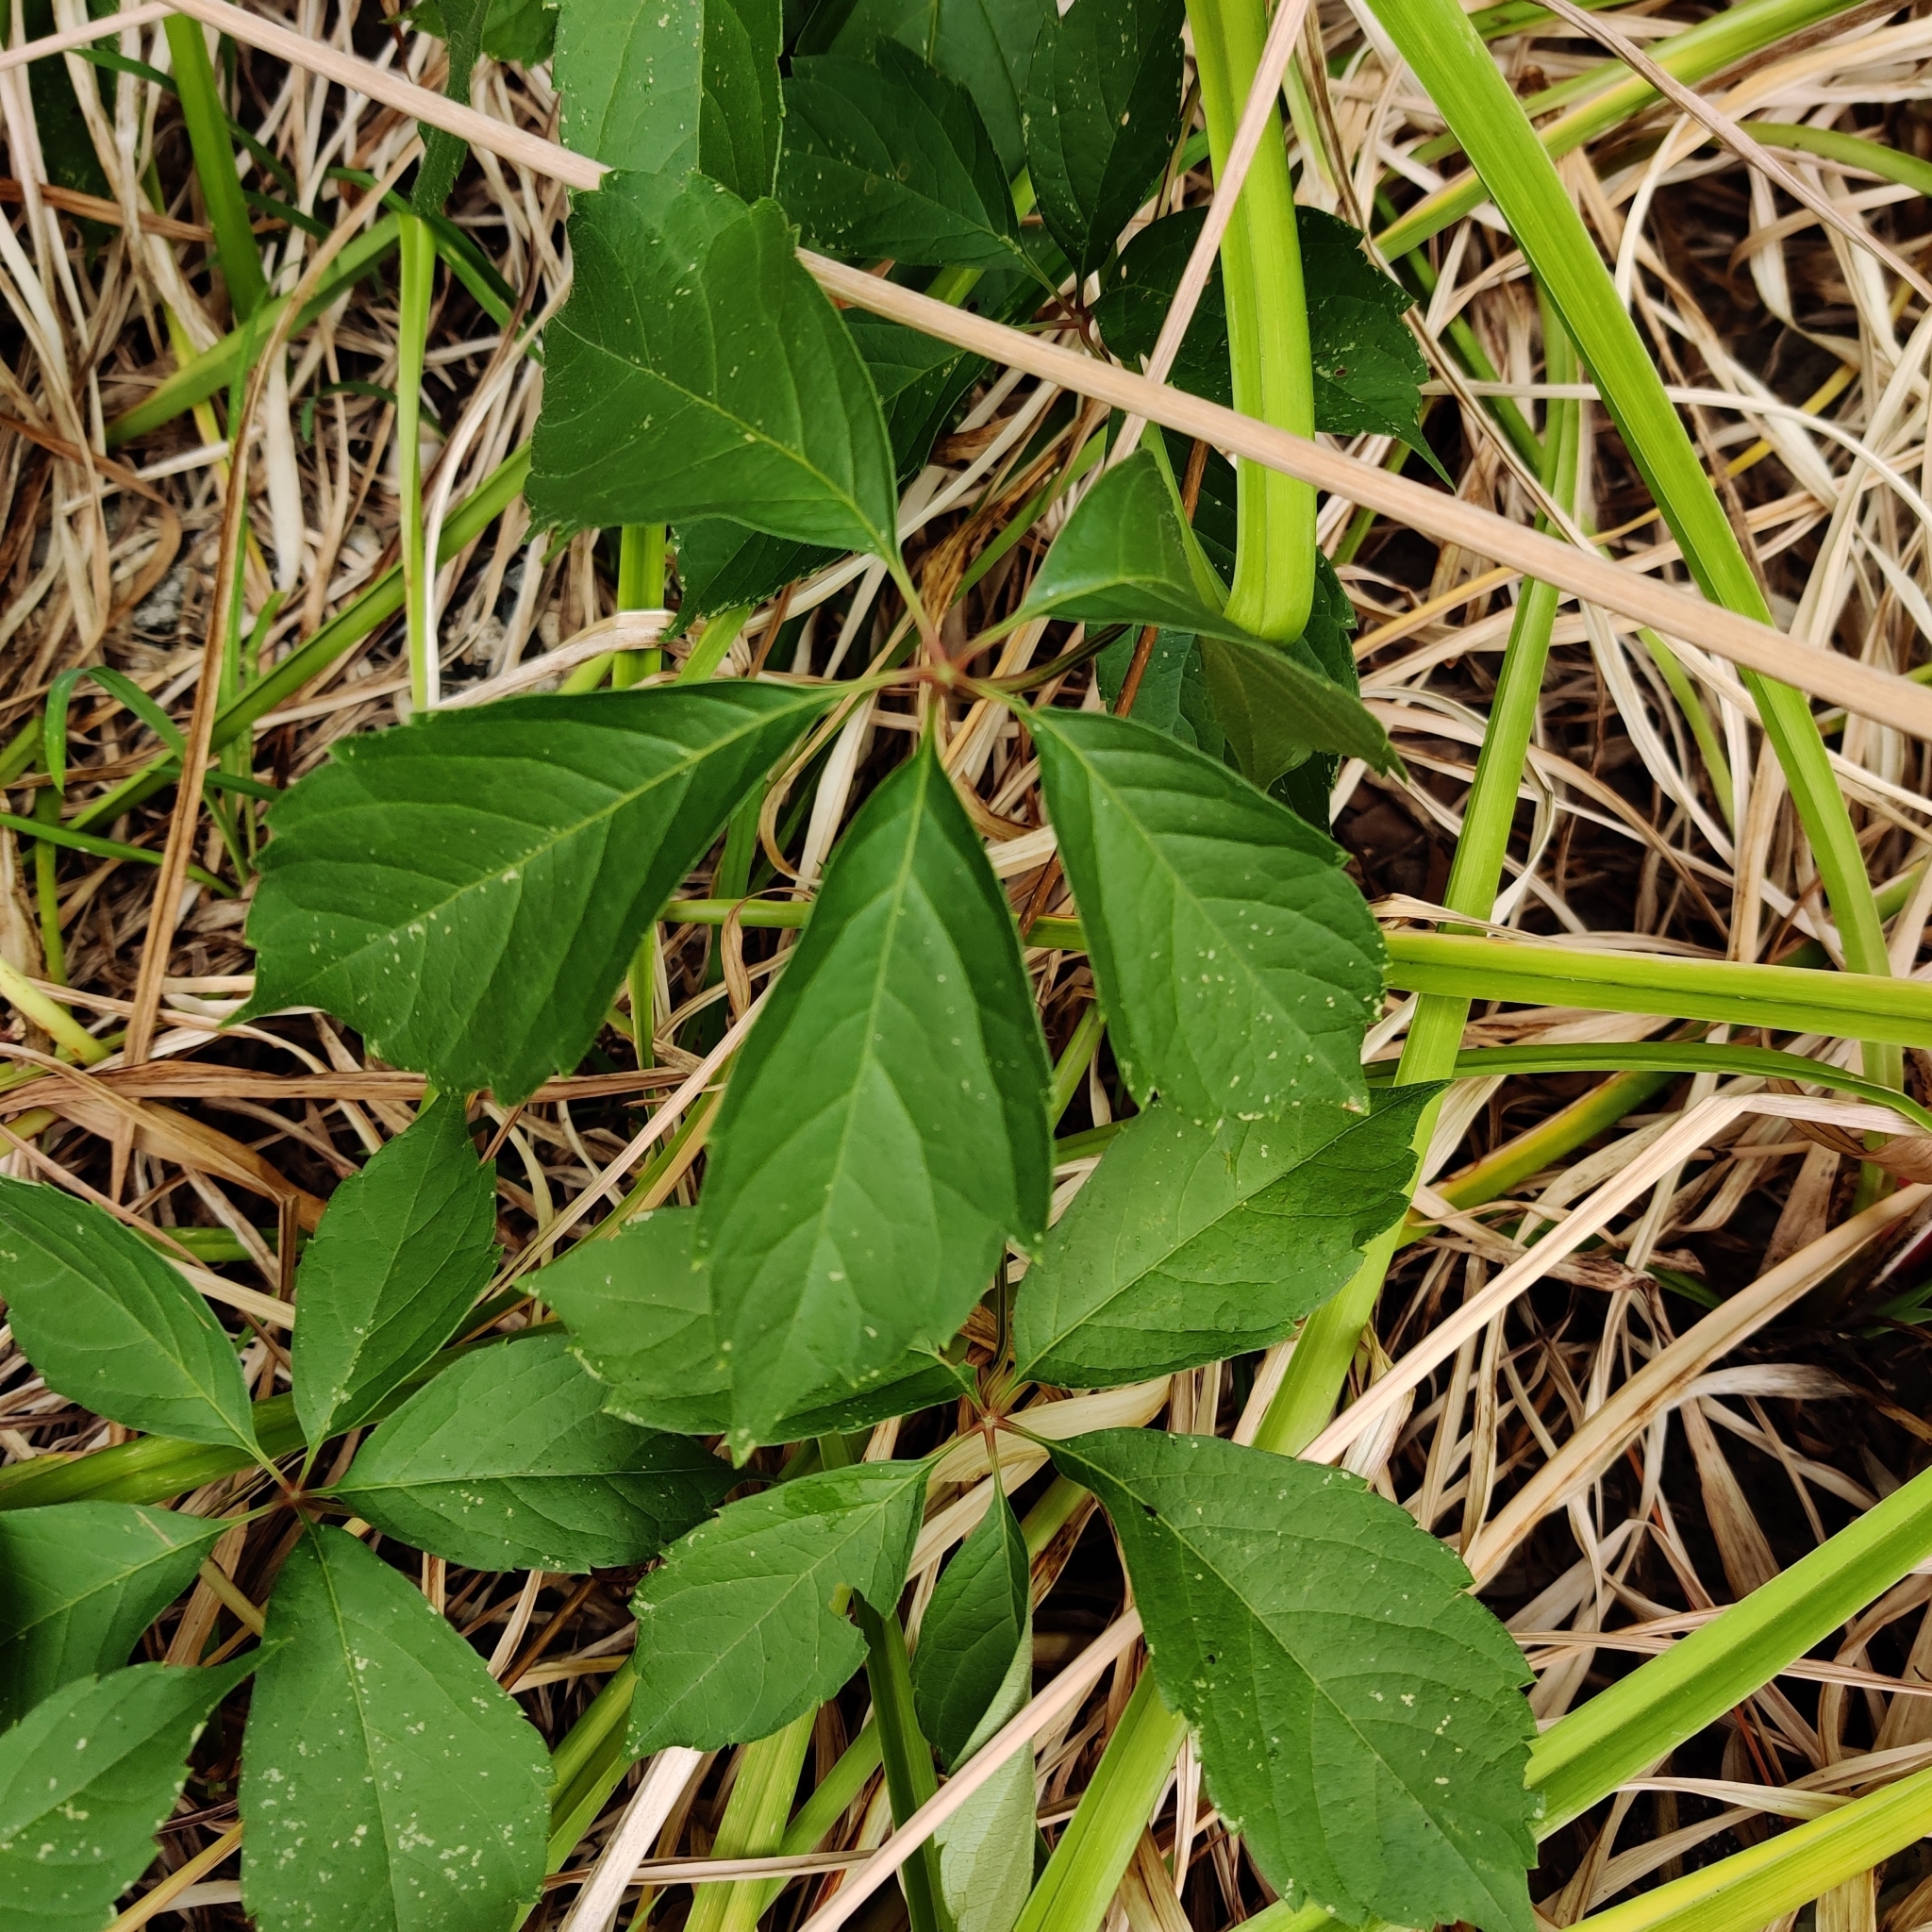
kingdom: Plantae
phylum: Tracheophyta
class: Magnoliopsida
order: Vitales
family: Vitaceae
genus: Parthenocissus
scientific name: Parthenocissus quinquefolia
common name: Virginia-creeper
